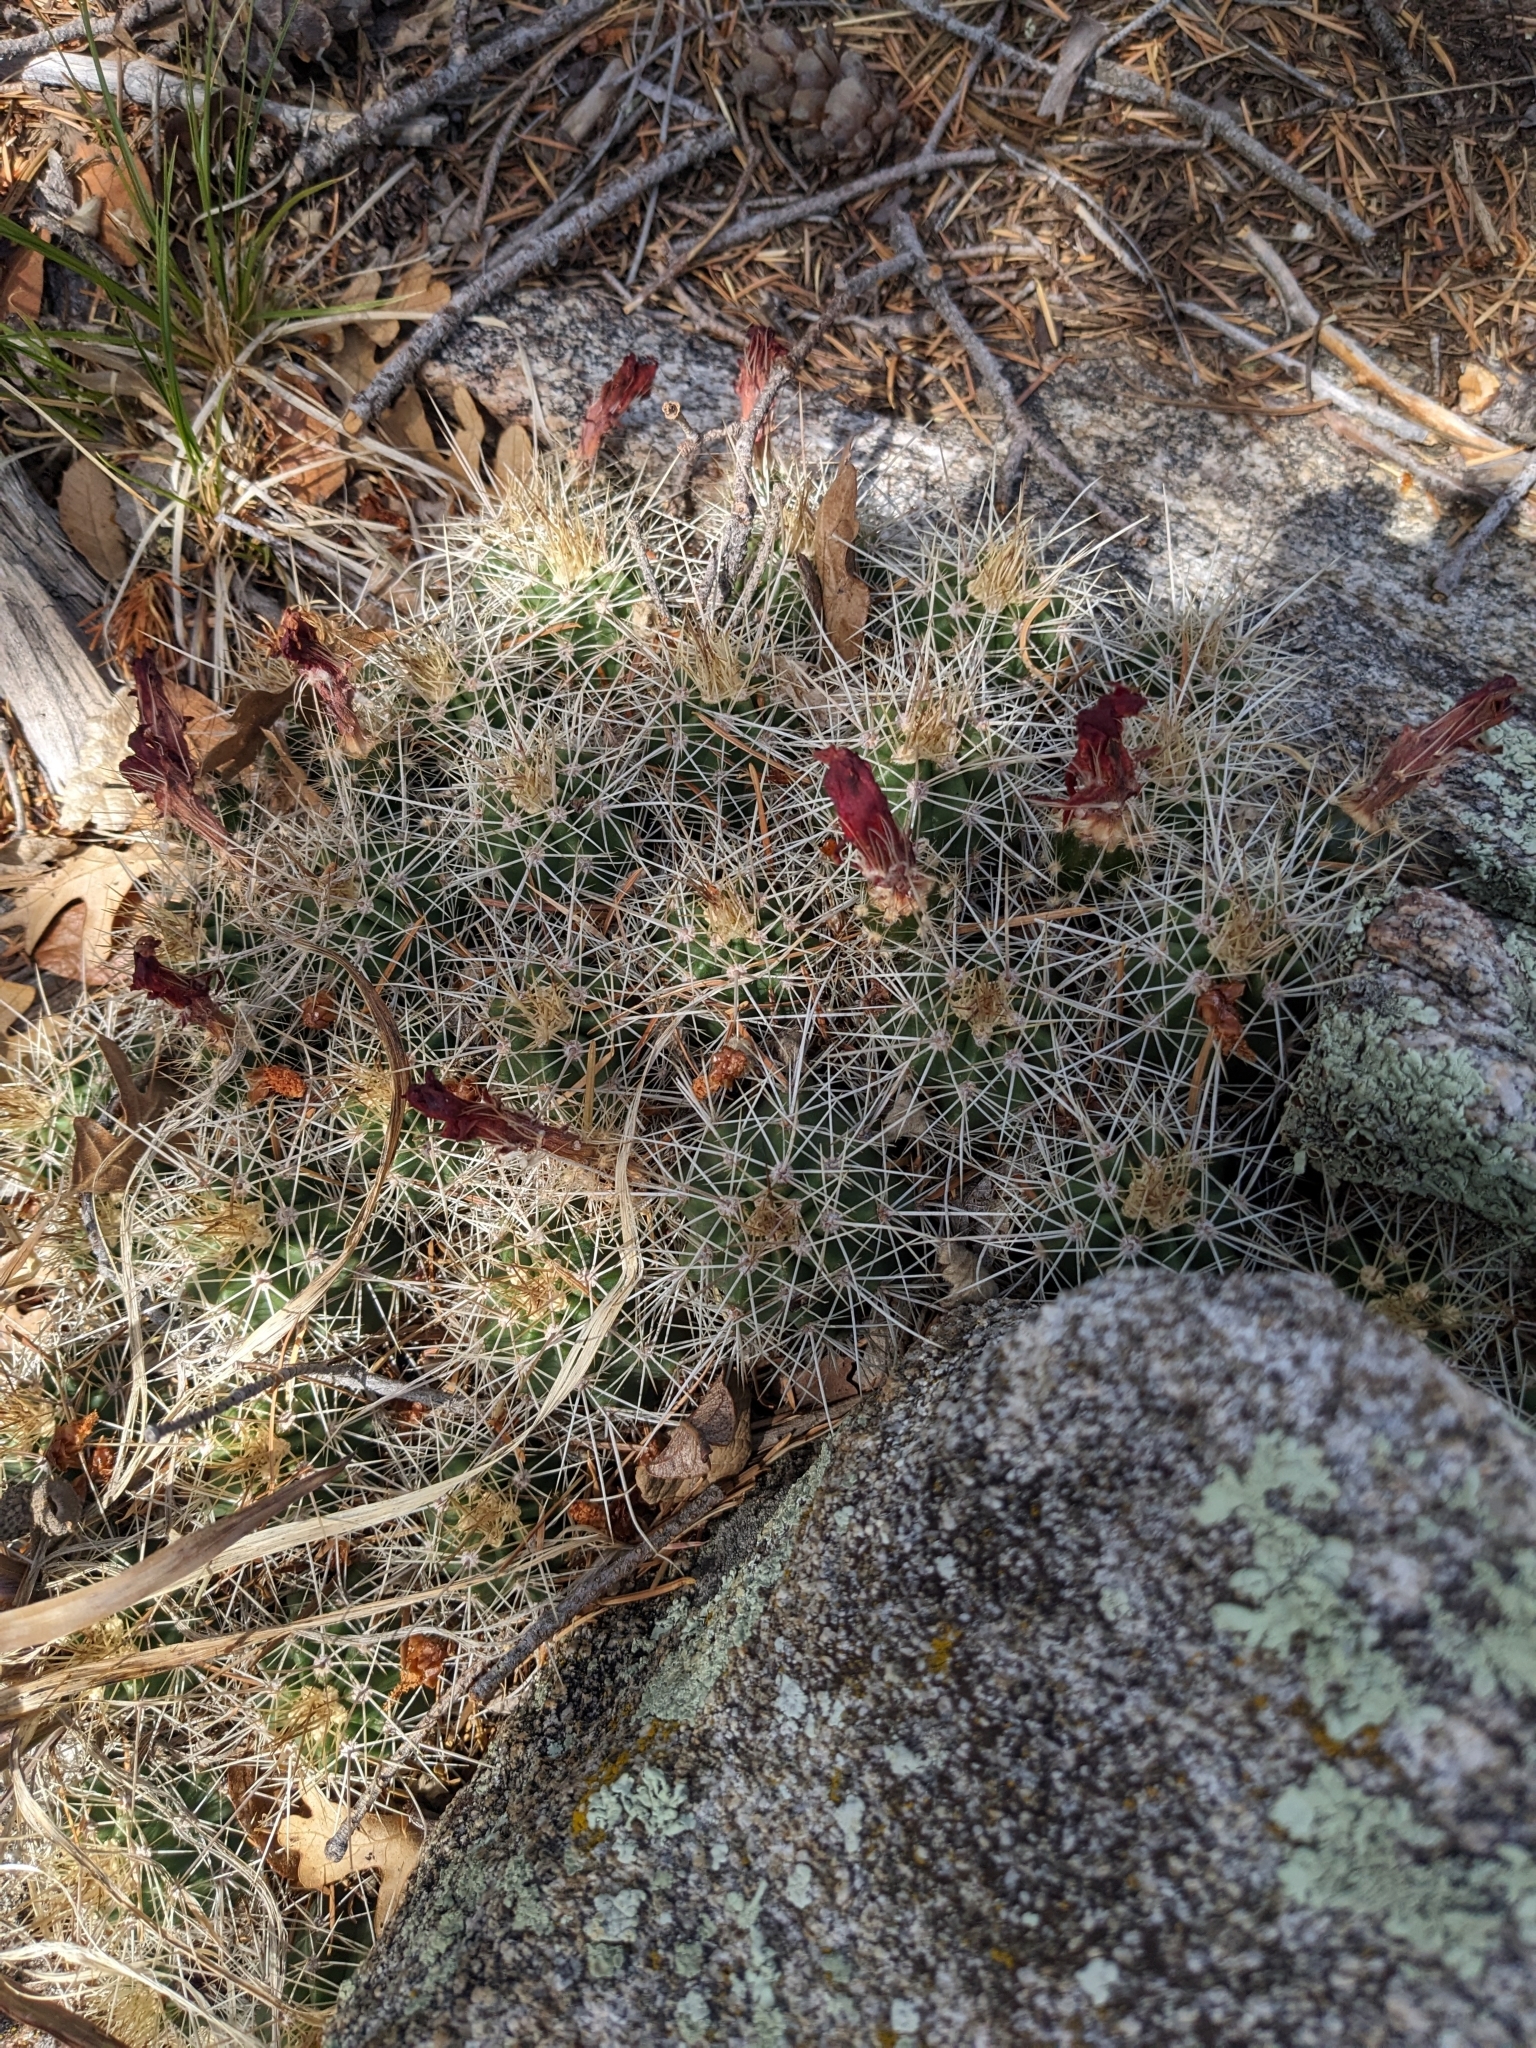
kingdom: Plantae
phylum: Tracheophyta
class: Magnoliopsida
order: Caryophyllales
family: Cactaceae
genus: Echinocereus
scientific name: Echinocereus coccineus
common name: Scarlet hedgehog cactus
